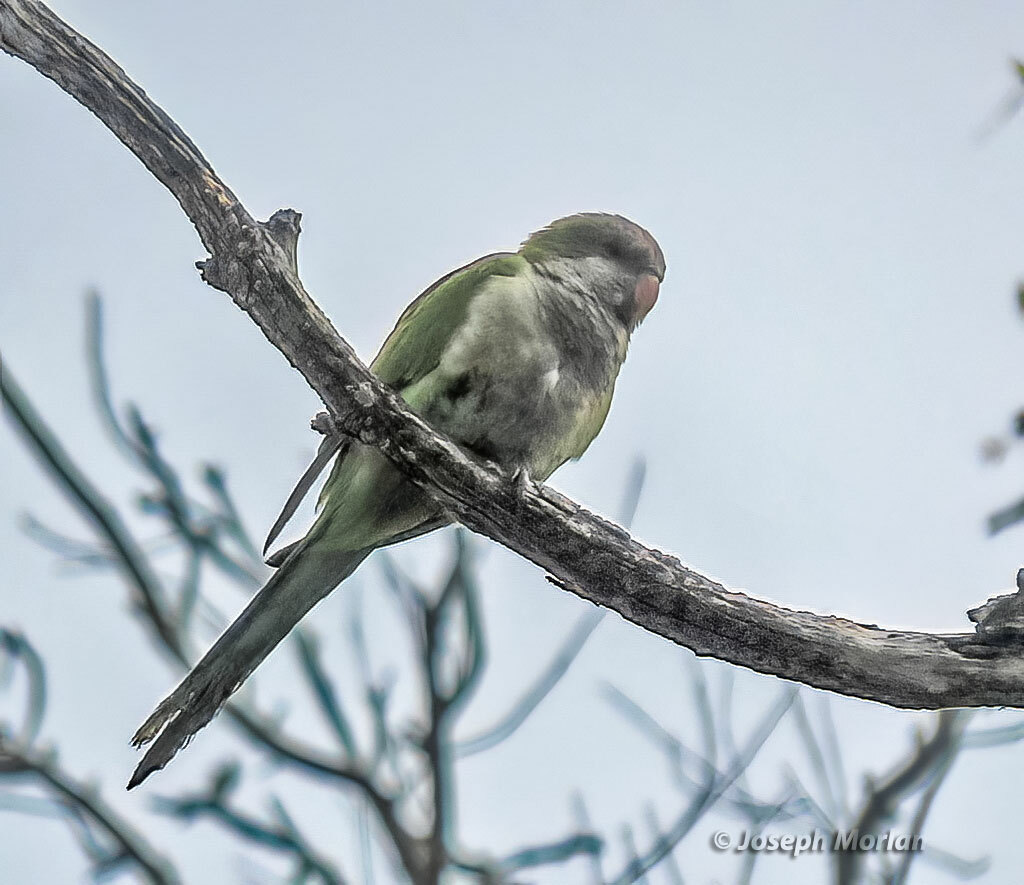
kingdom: Animalia
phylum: Chordata
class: Aves
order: Psittaciformes
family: Psittacidae
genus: Myiopsitta
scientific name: Myiopsitta monachus
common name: Monk parakeet
